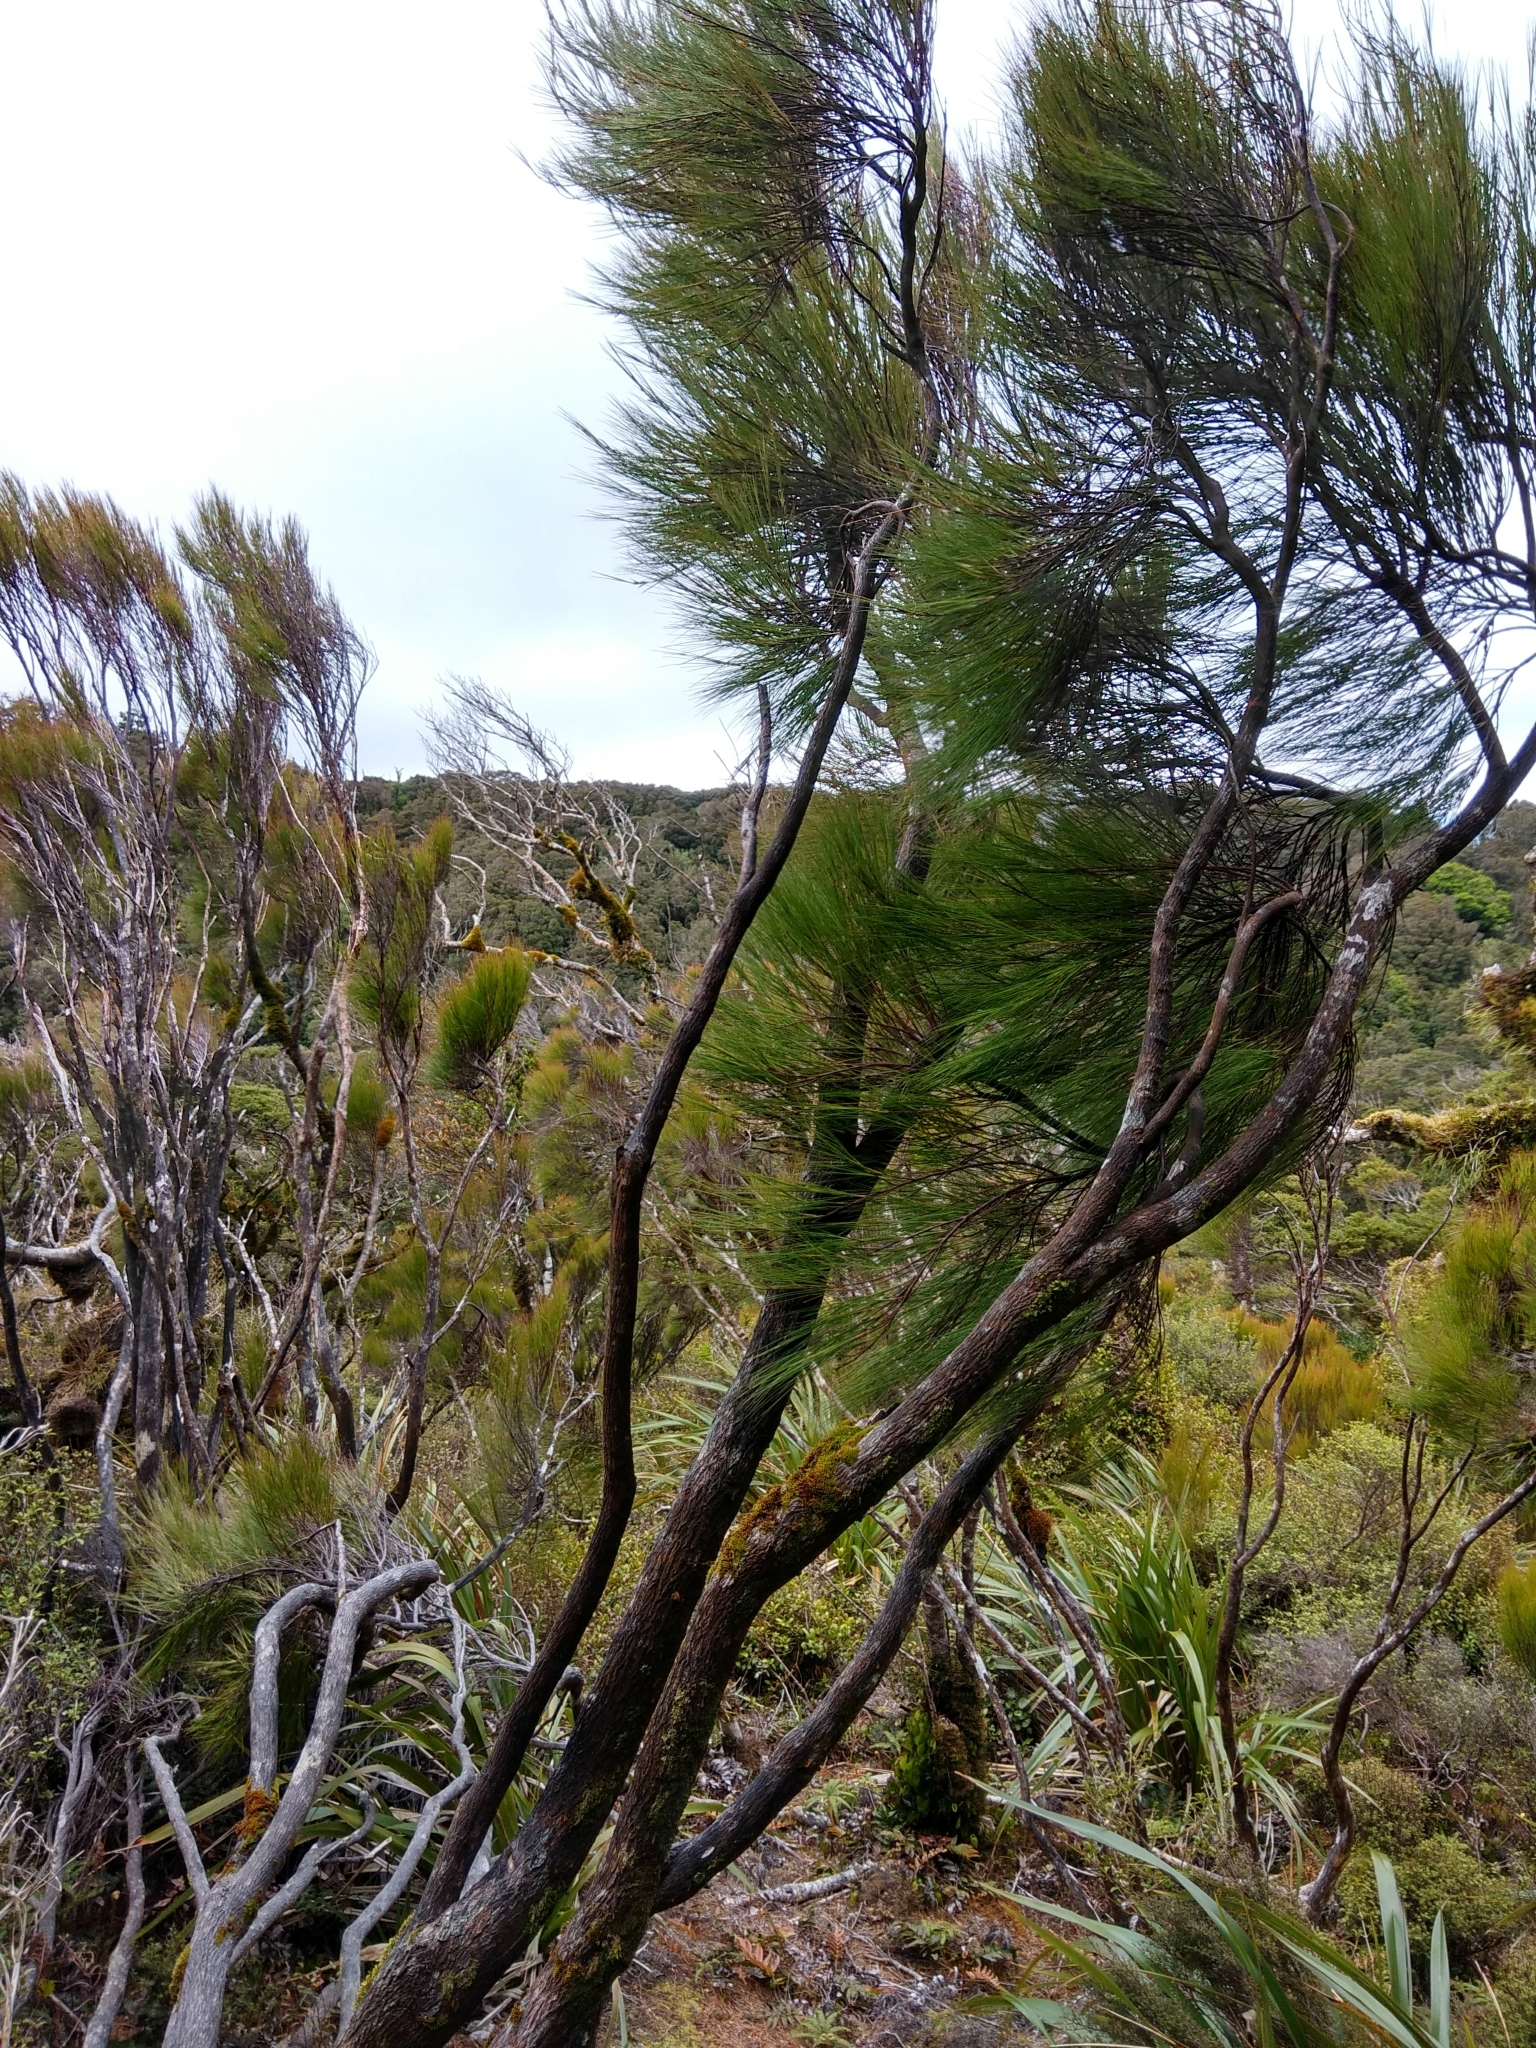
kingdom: Plantae
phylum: Tracheophyta
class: Magnoliopsida
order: Ericales
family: Ericaceae
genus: Dracophyllum
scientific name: Dracophyllum filifolium
